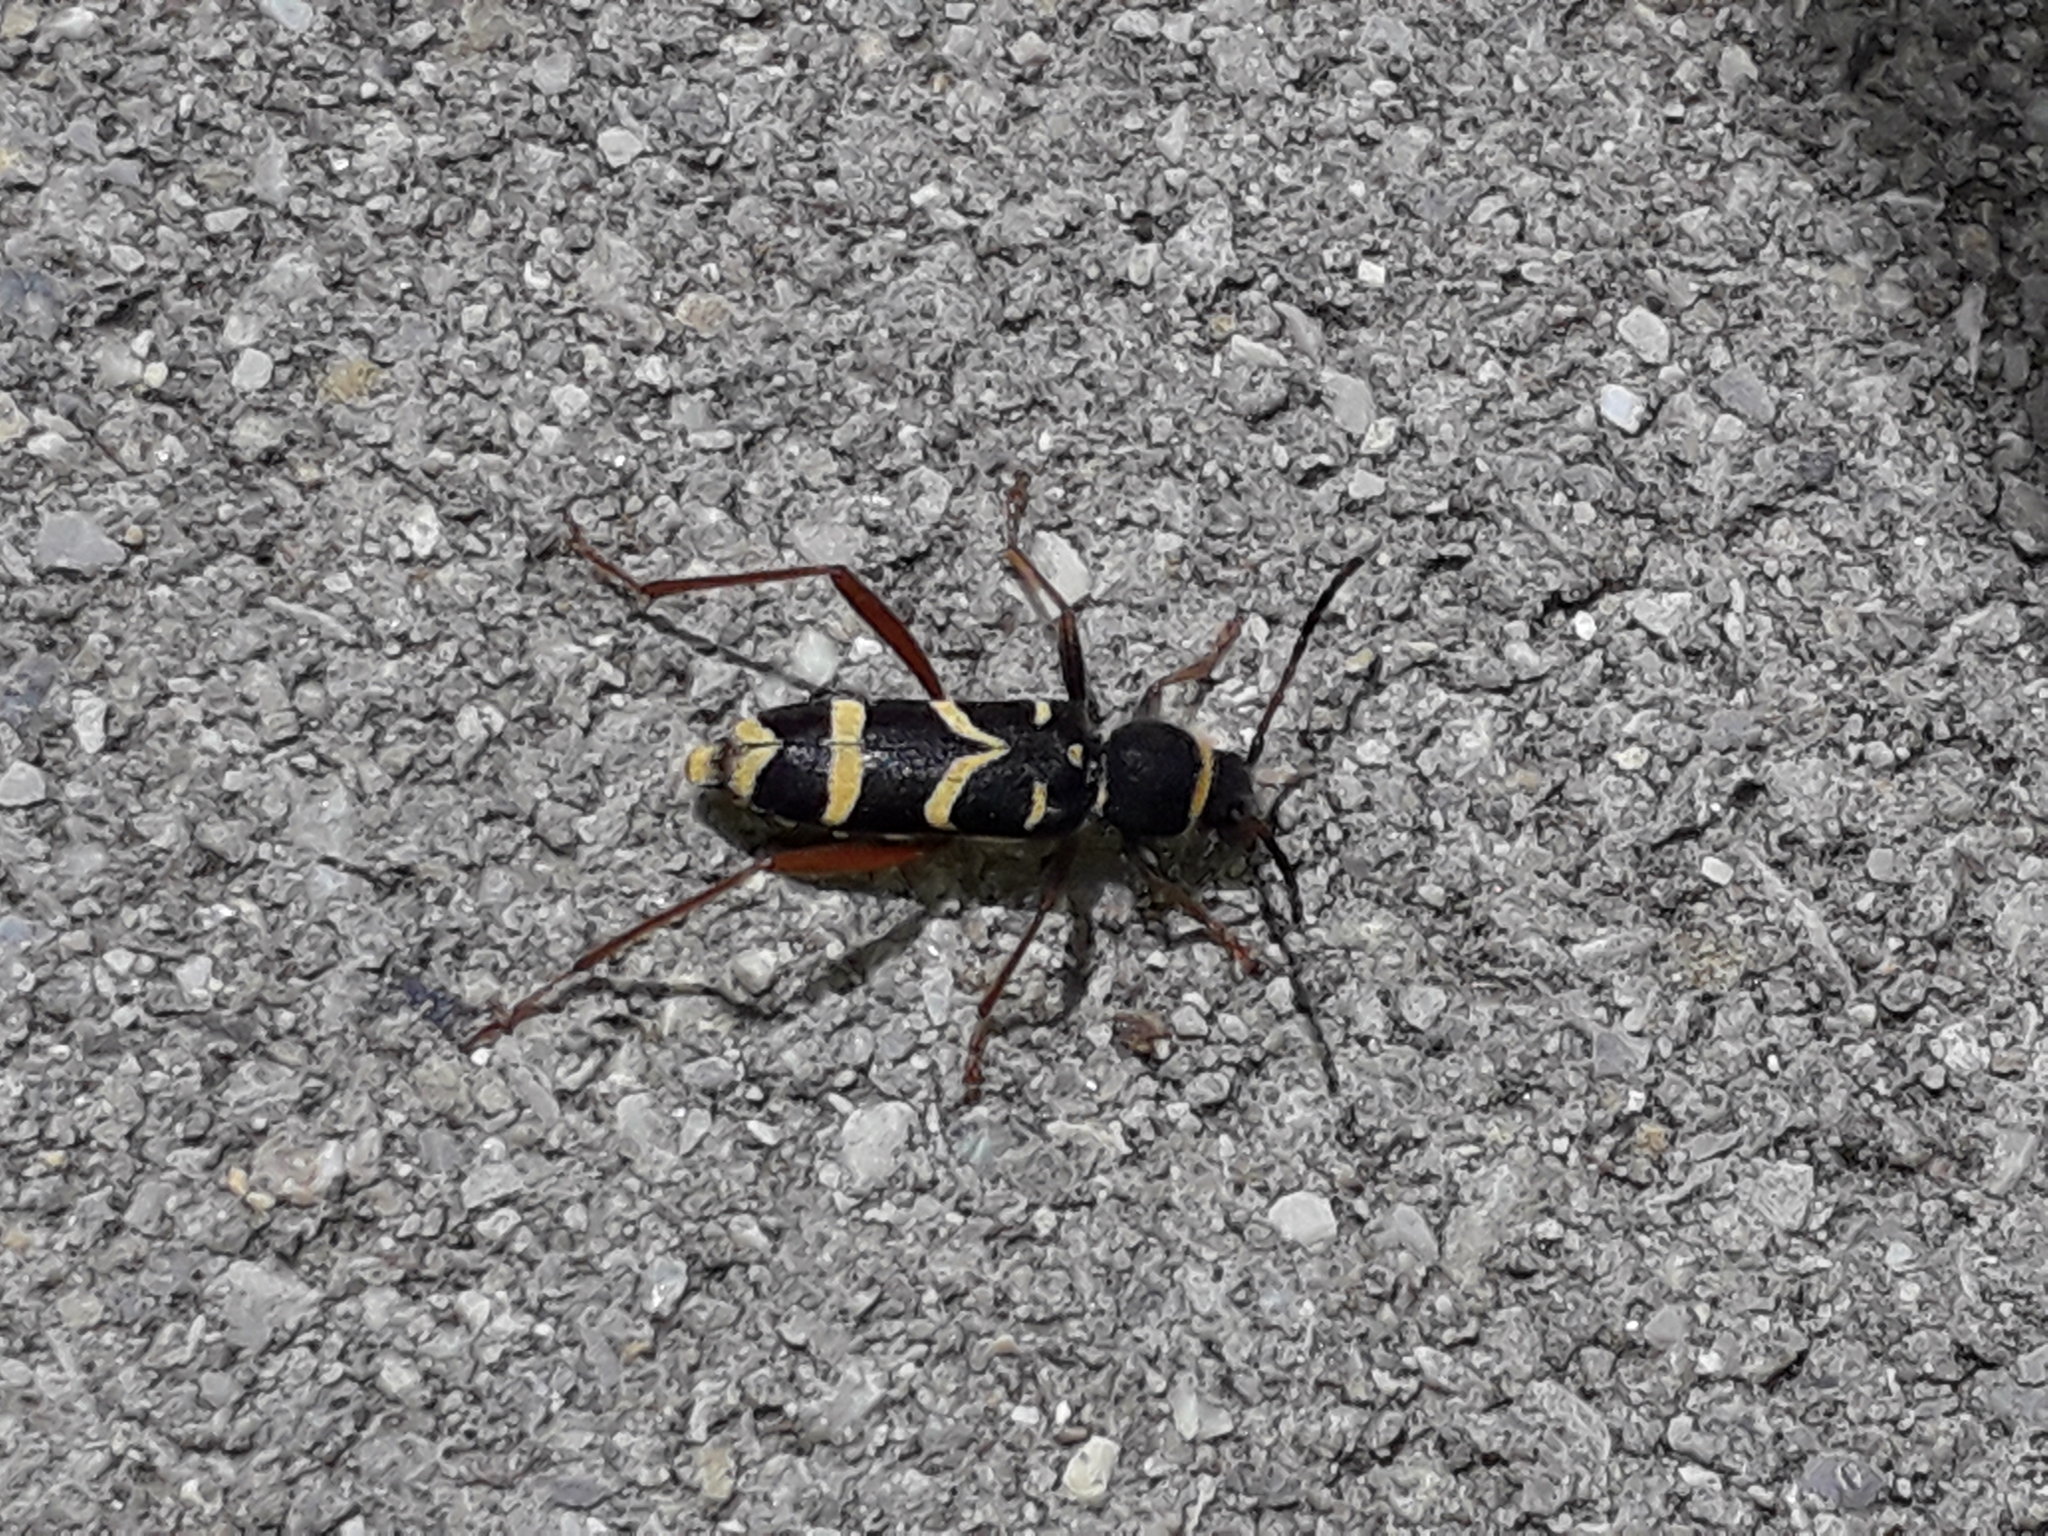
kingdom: Animalia
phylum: Arthropoda
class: Insecta
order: Coleoptera
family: Cerambycidae
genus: Clytus
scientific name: Clytus arietis
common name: Wasp beetle
